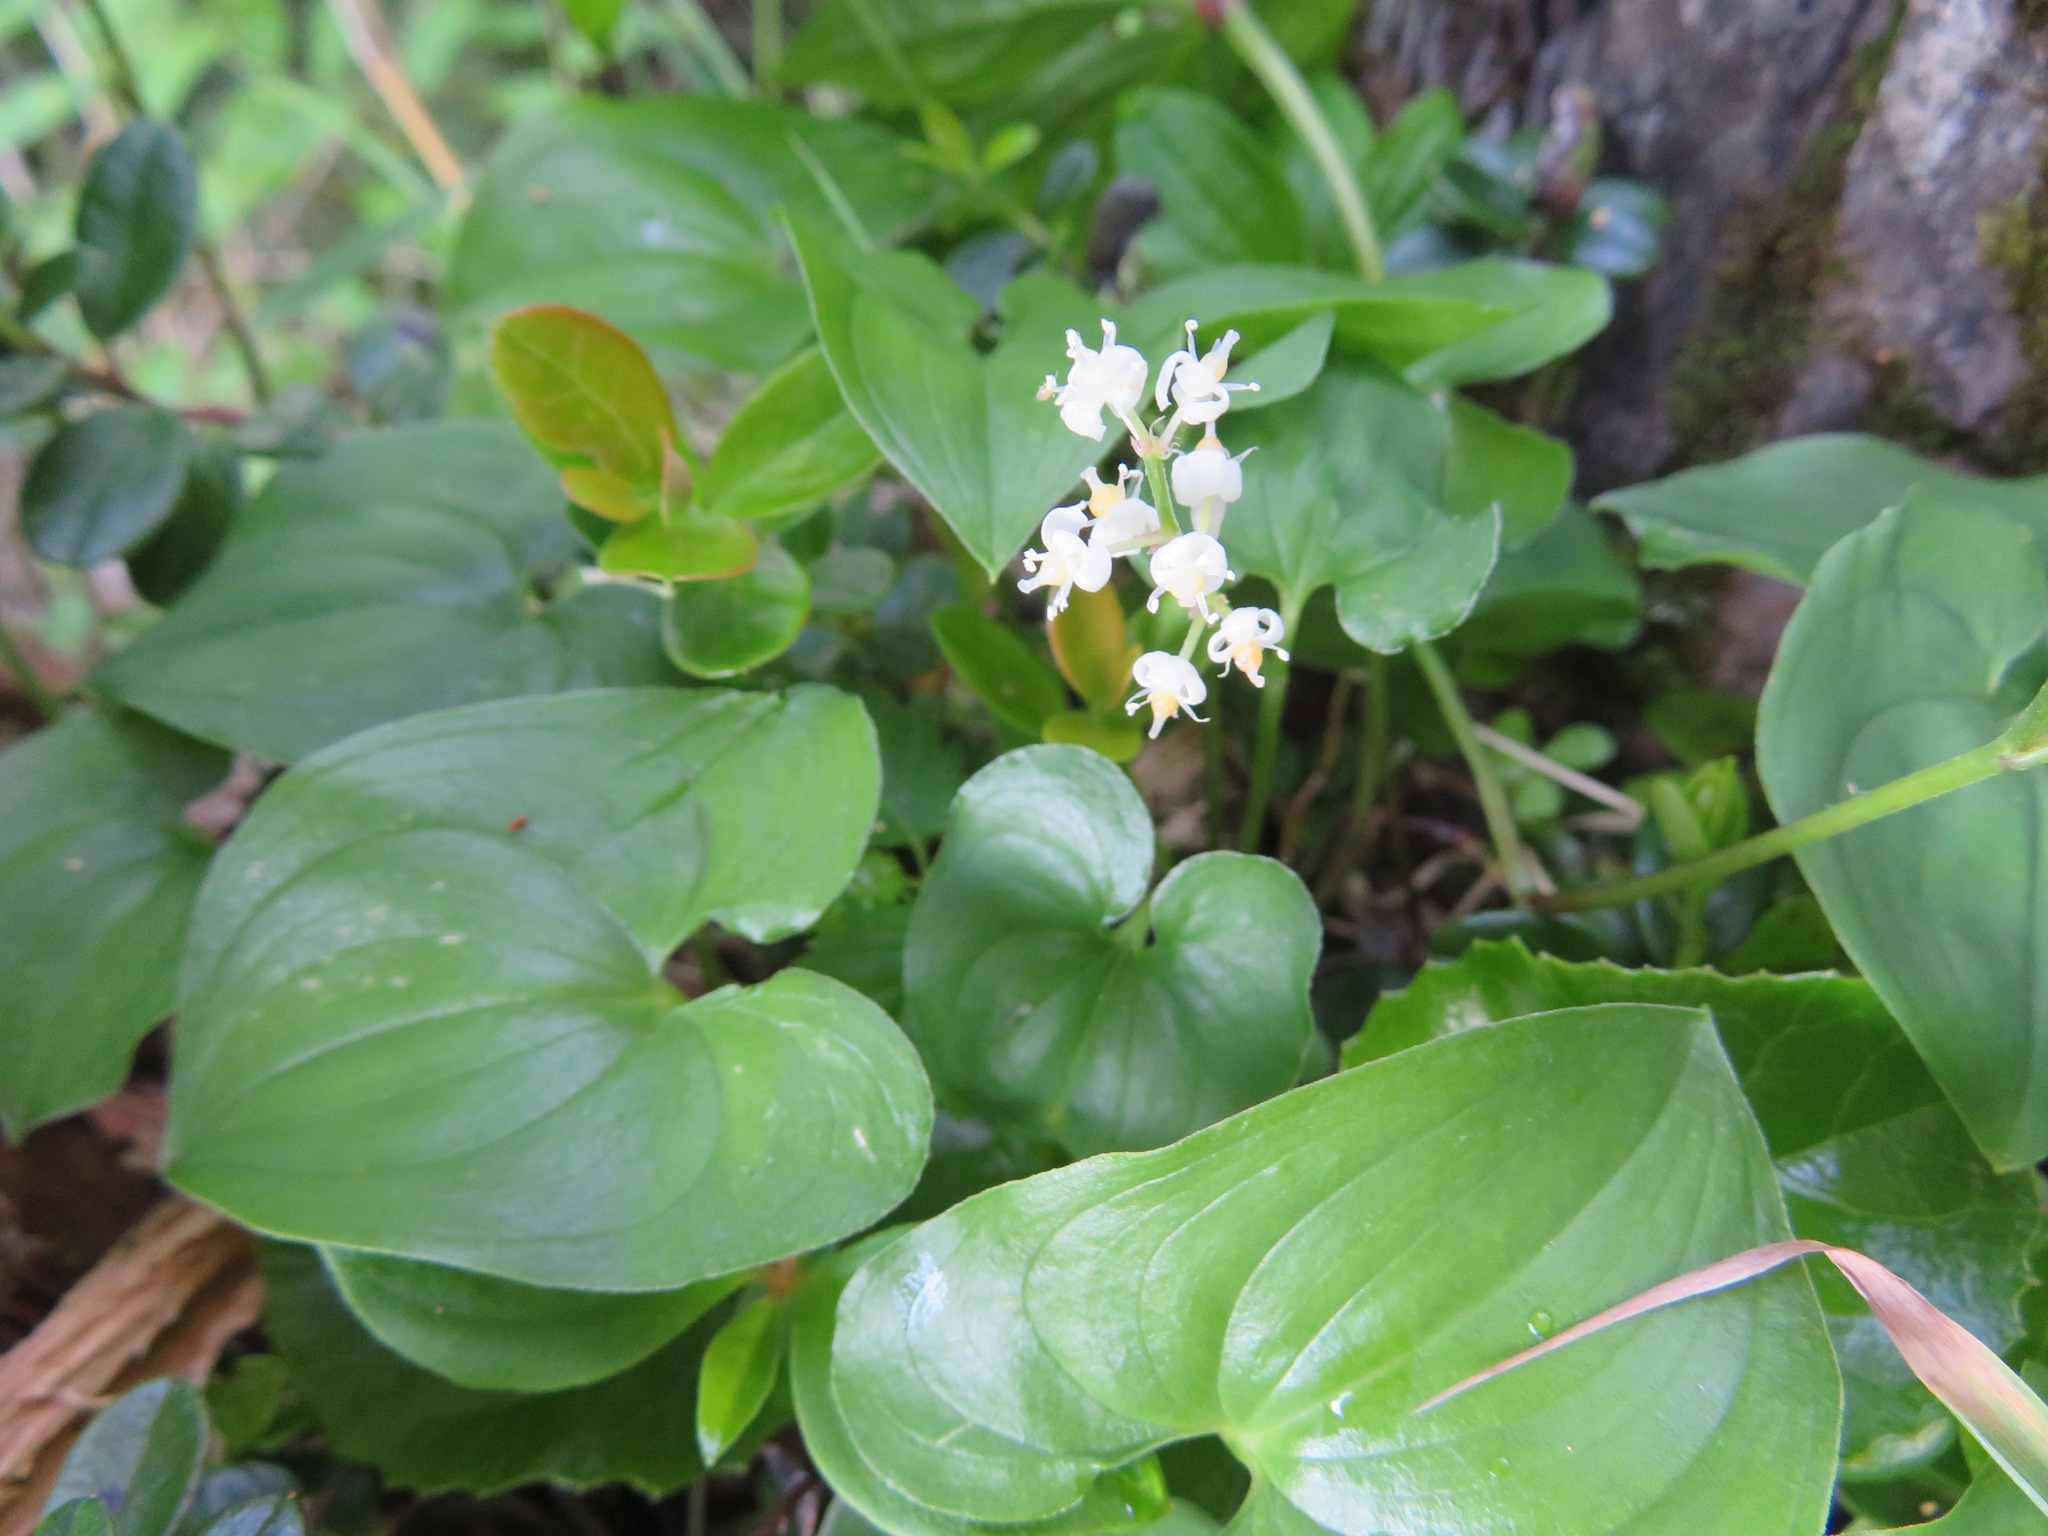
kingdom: Plantae
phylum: Tracheophyta
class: Liliopsida
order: Asparagales
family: Asparagaceae
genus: Maianthemum
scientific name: Maianthemum dilatatum
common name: False lily-of-the-valley
